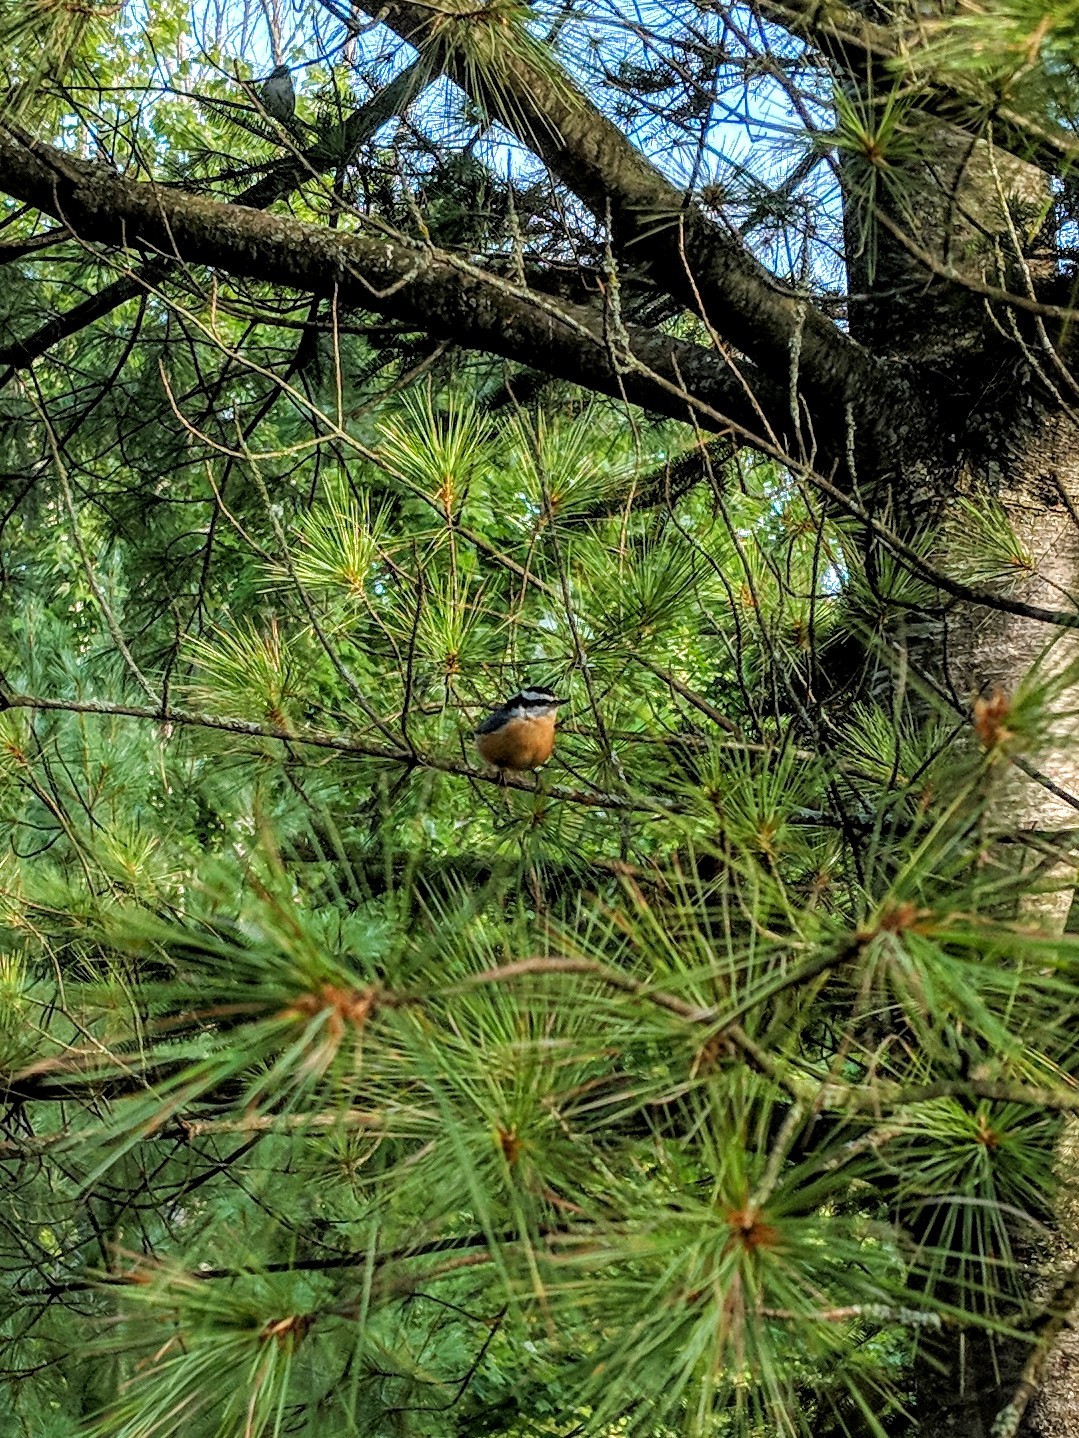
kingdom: Animalia
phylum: Chordata
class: Aves
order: Passeriformes
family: Sittidae
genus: Sitta
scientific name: Sitta canadensis
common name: Red-breasted nuthatch
